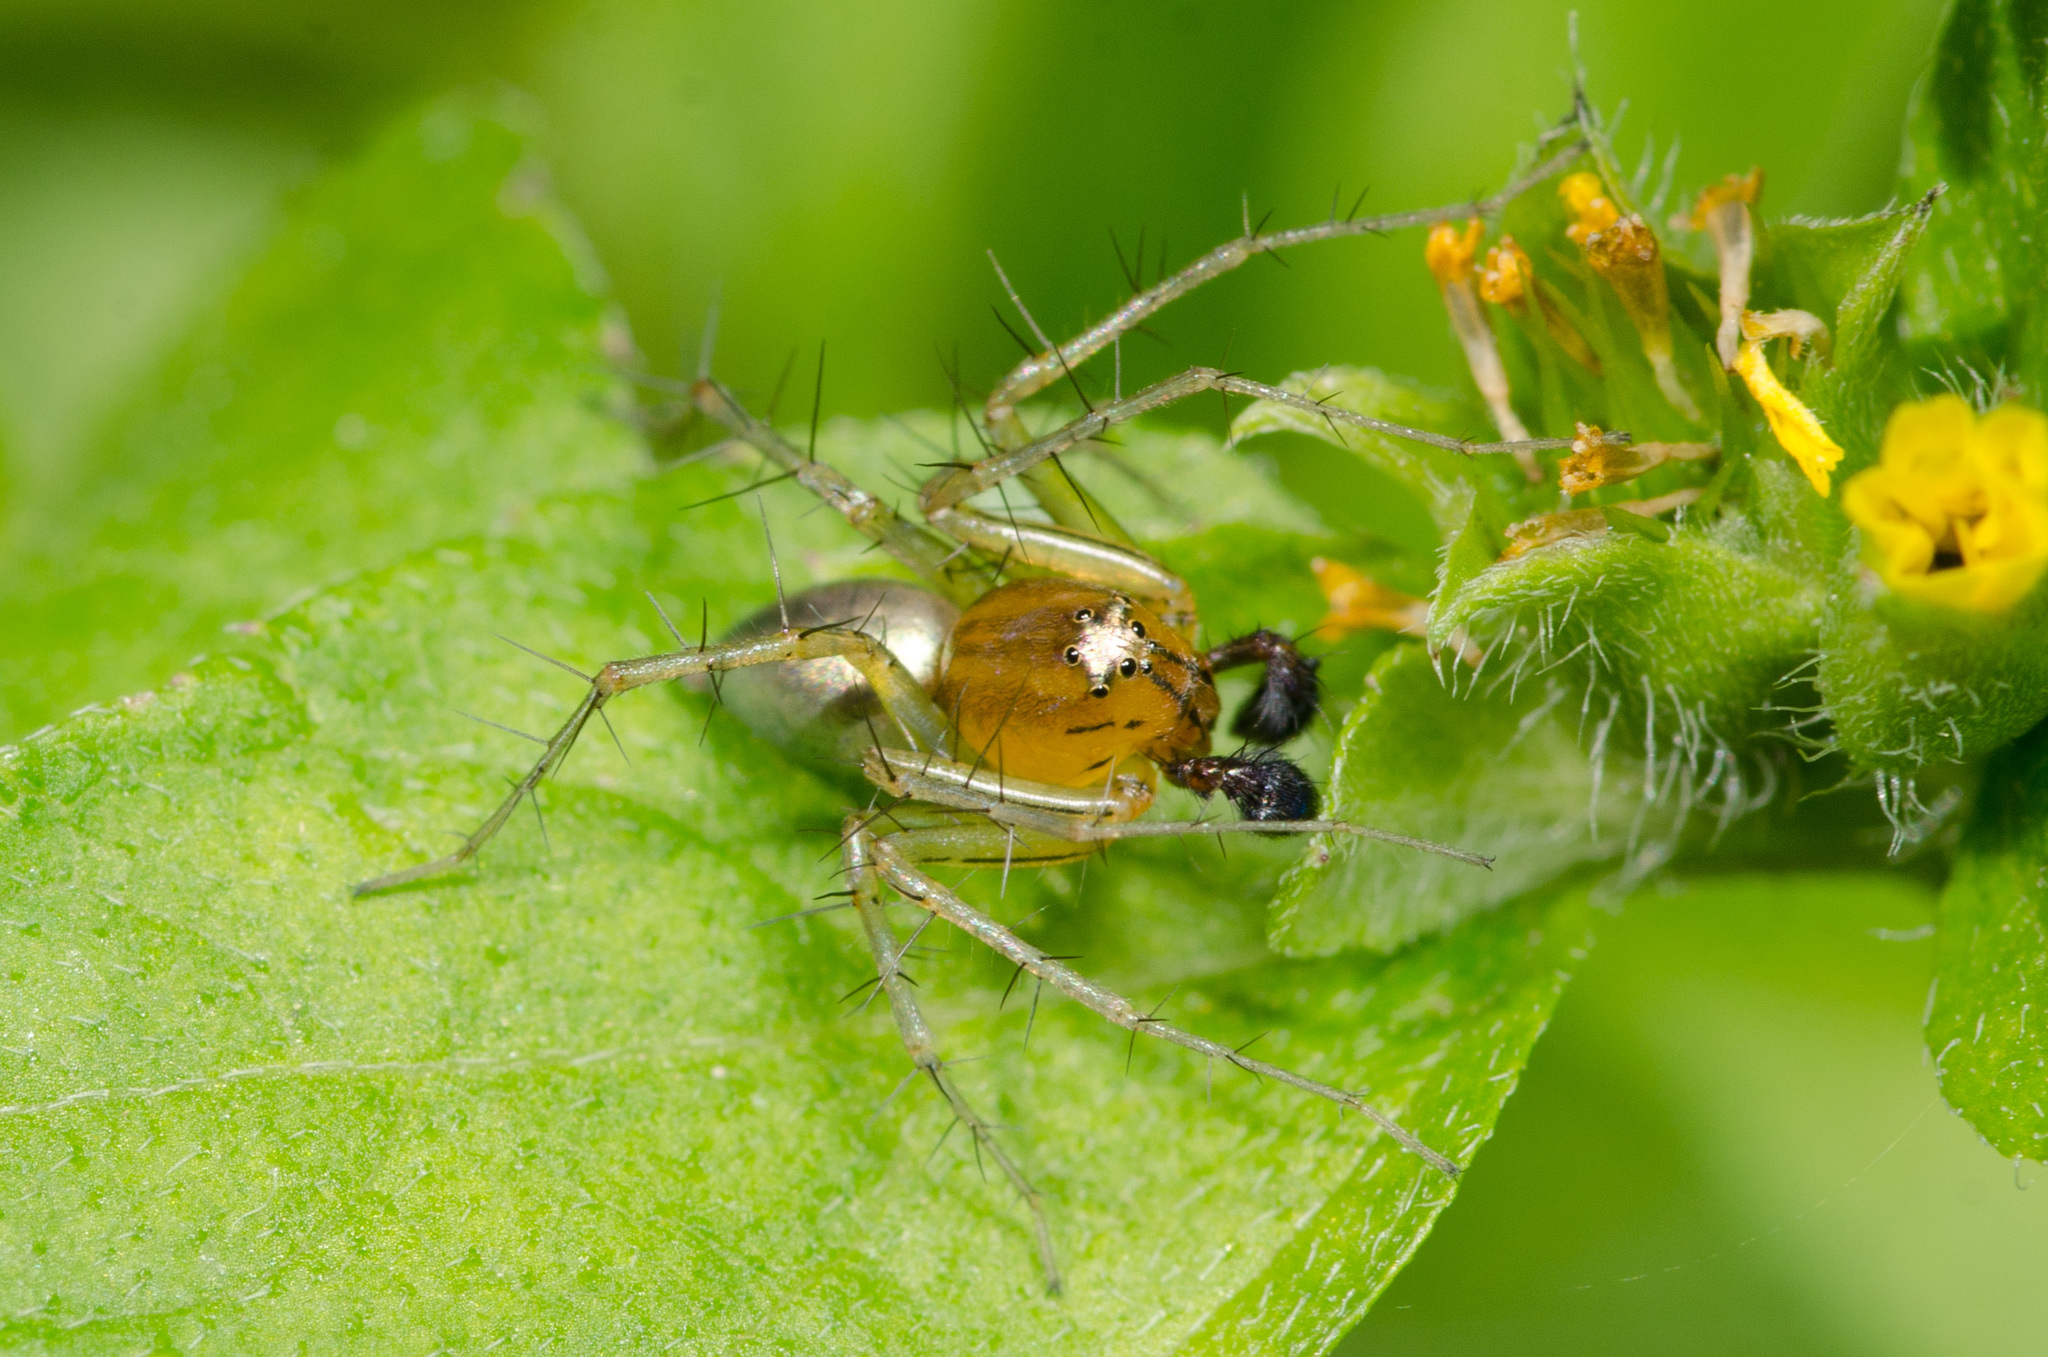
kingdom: Animalia
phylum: Arthropoda
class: Arachnida
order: Araneae
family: Oxyopidae
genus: Oxyopes
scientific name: Oxyopes salticus
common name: Lynx spiders
